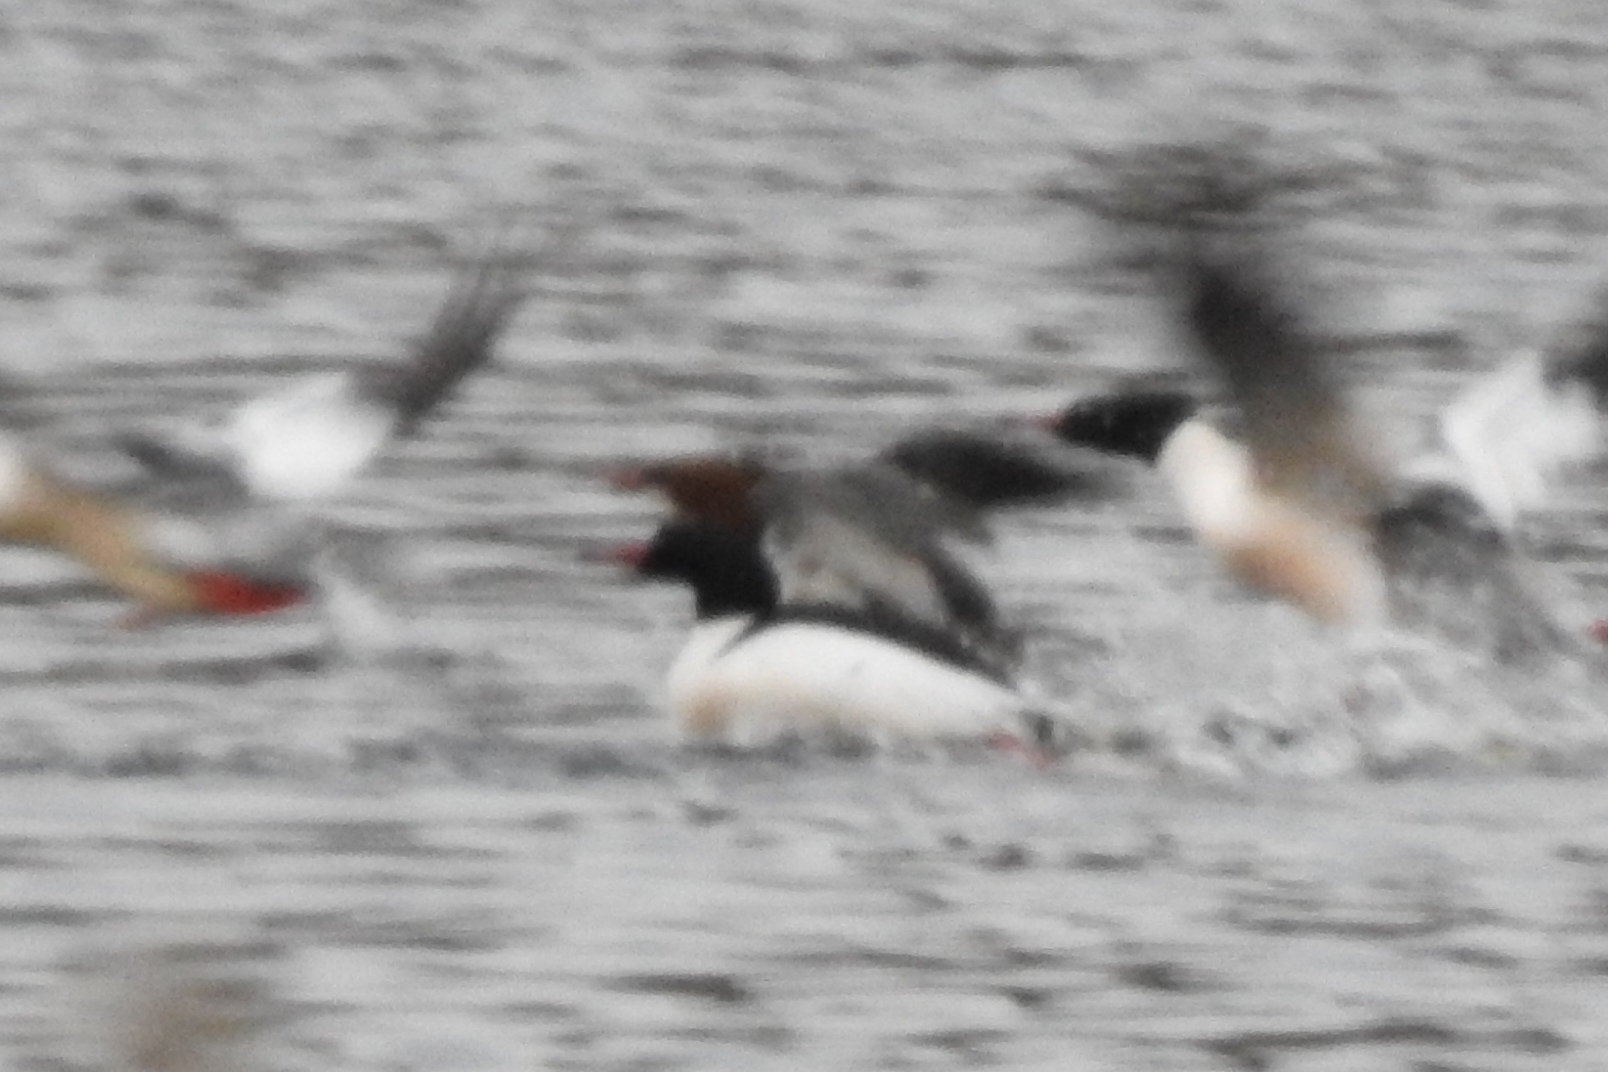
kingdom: Animalia
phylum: Chordata
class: Aves
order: Anseriformes
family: Anatidae
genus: Mergus
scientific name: Mergus merganser
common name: Common merganser
